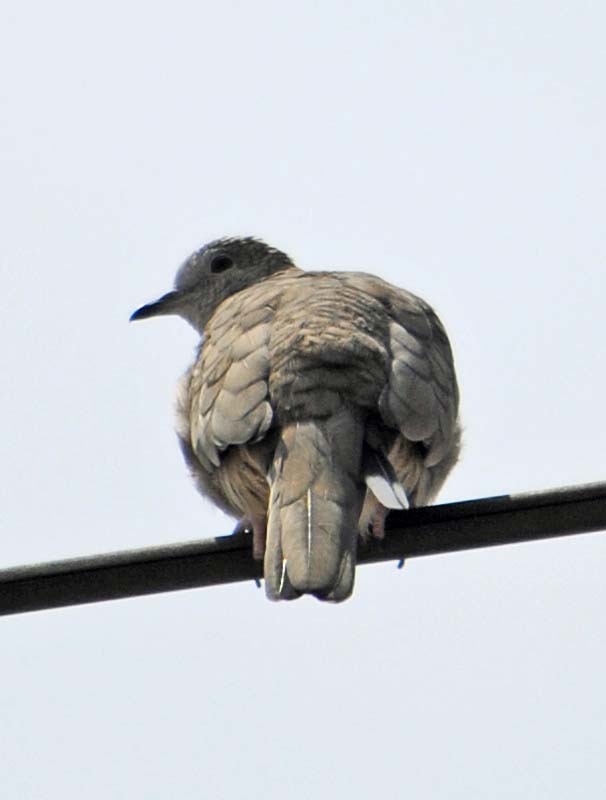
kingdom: Animalia
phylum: Chordata
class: Aves
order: Columbiformes
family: Columbidae
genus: Columbina
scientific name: Columbina inca
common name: Inca dove
